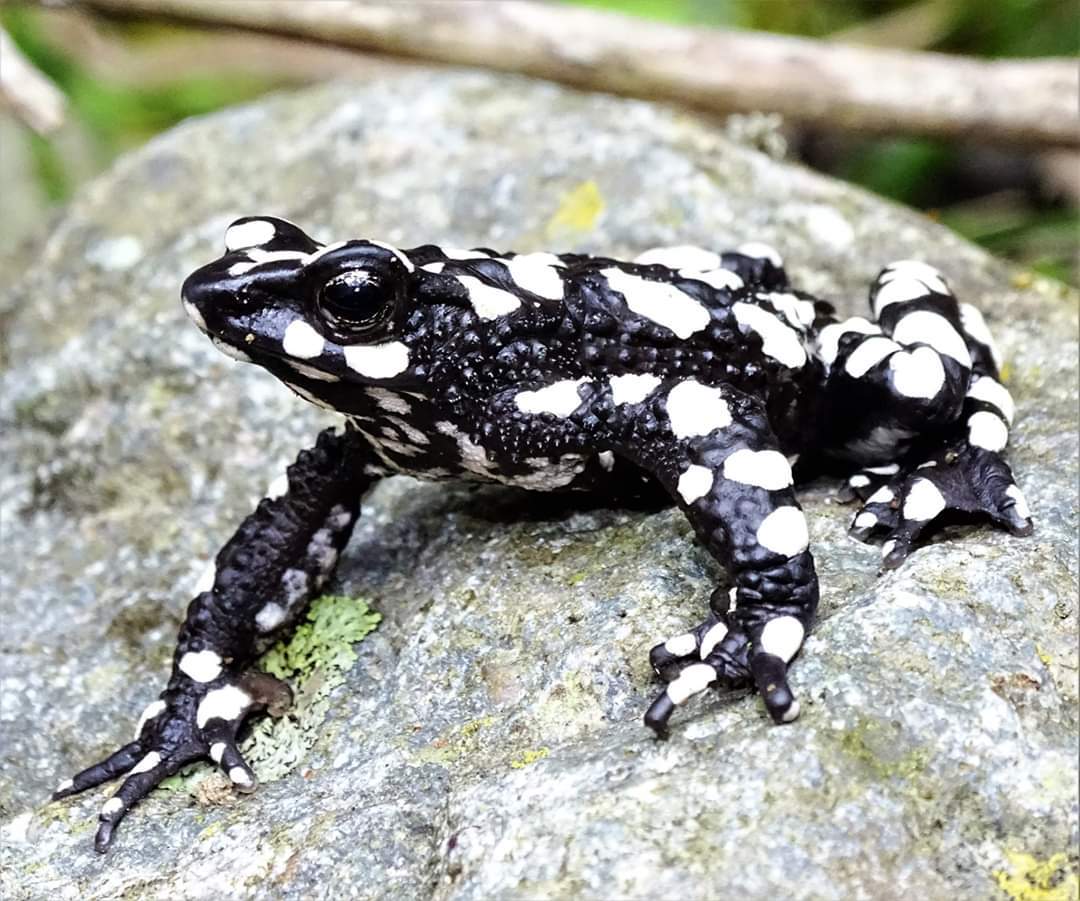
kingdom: Animalia
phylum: Chordata
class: Amphibia
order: Anura
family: Bufonidae
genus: Atelopus
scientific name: Atelopus arsyecue
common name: Starry night harlequin toad
